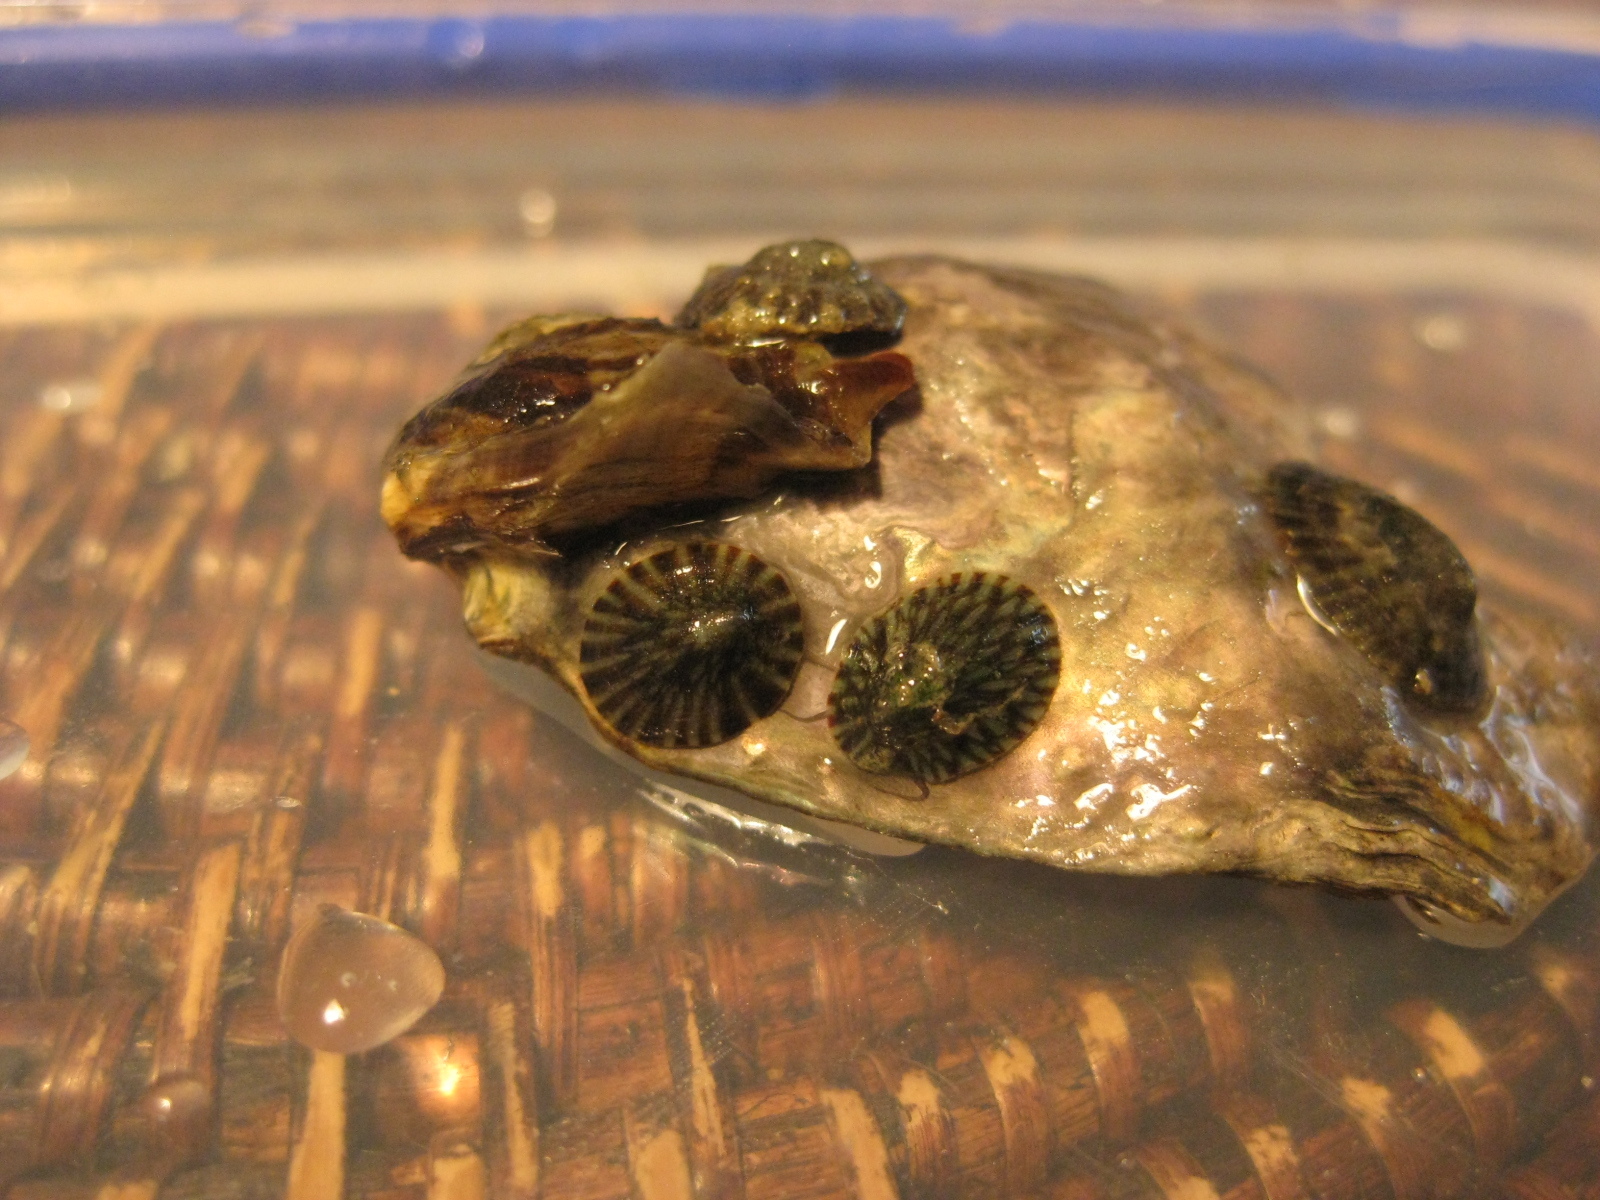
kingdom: Animalia
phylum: Mollusca
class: Gastropoda
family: Lottiidae
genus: Notoacmea
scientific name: Notoacmea scapha
